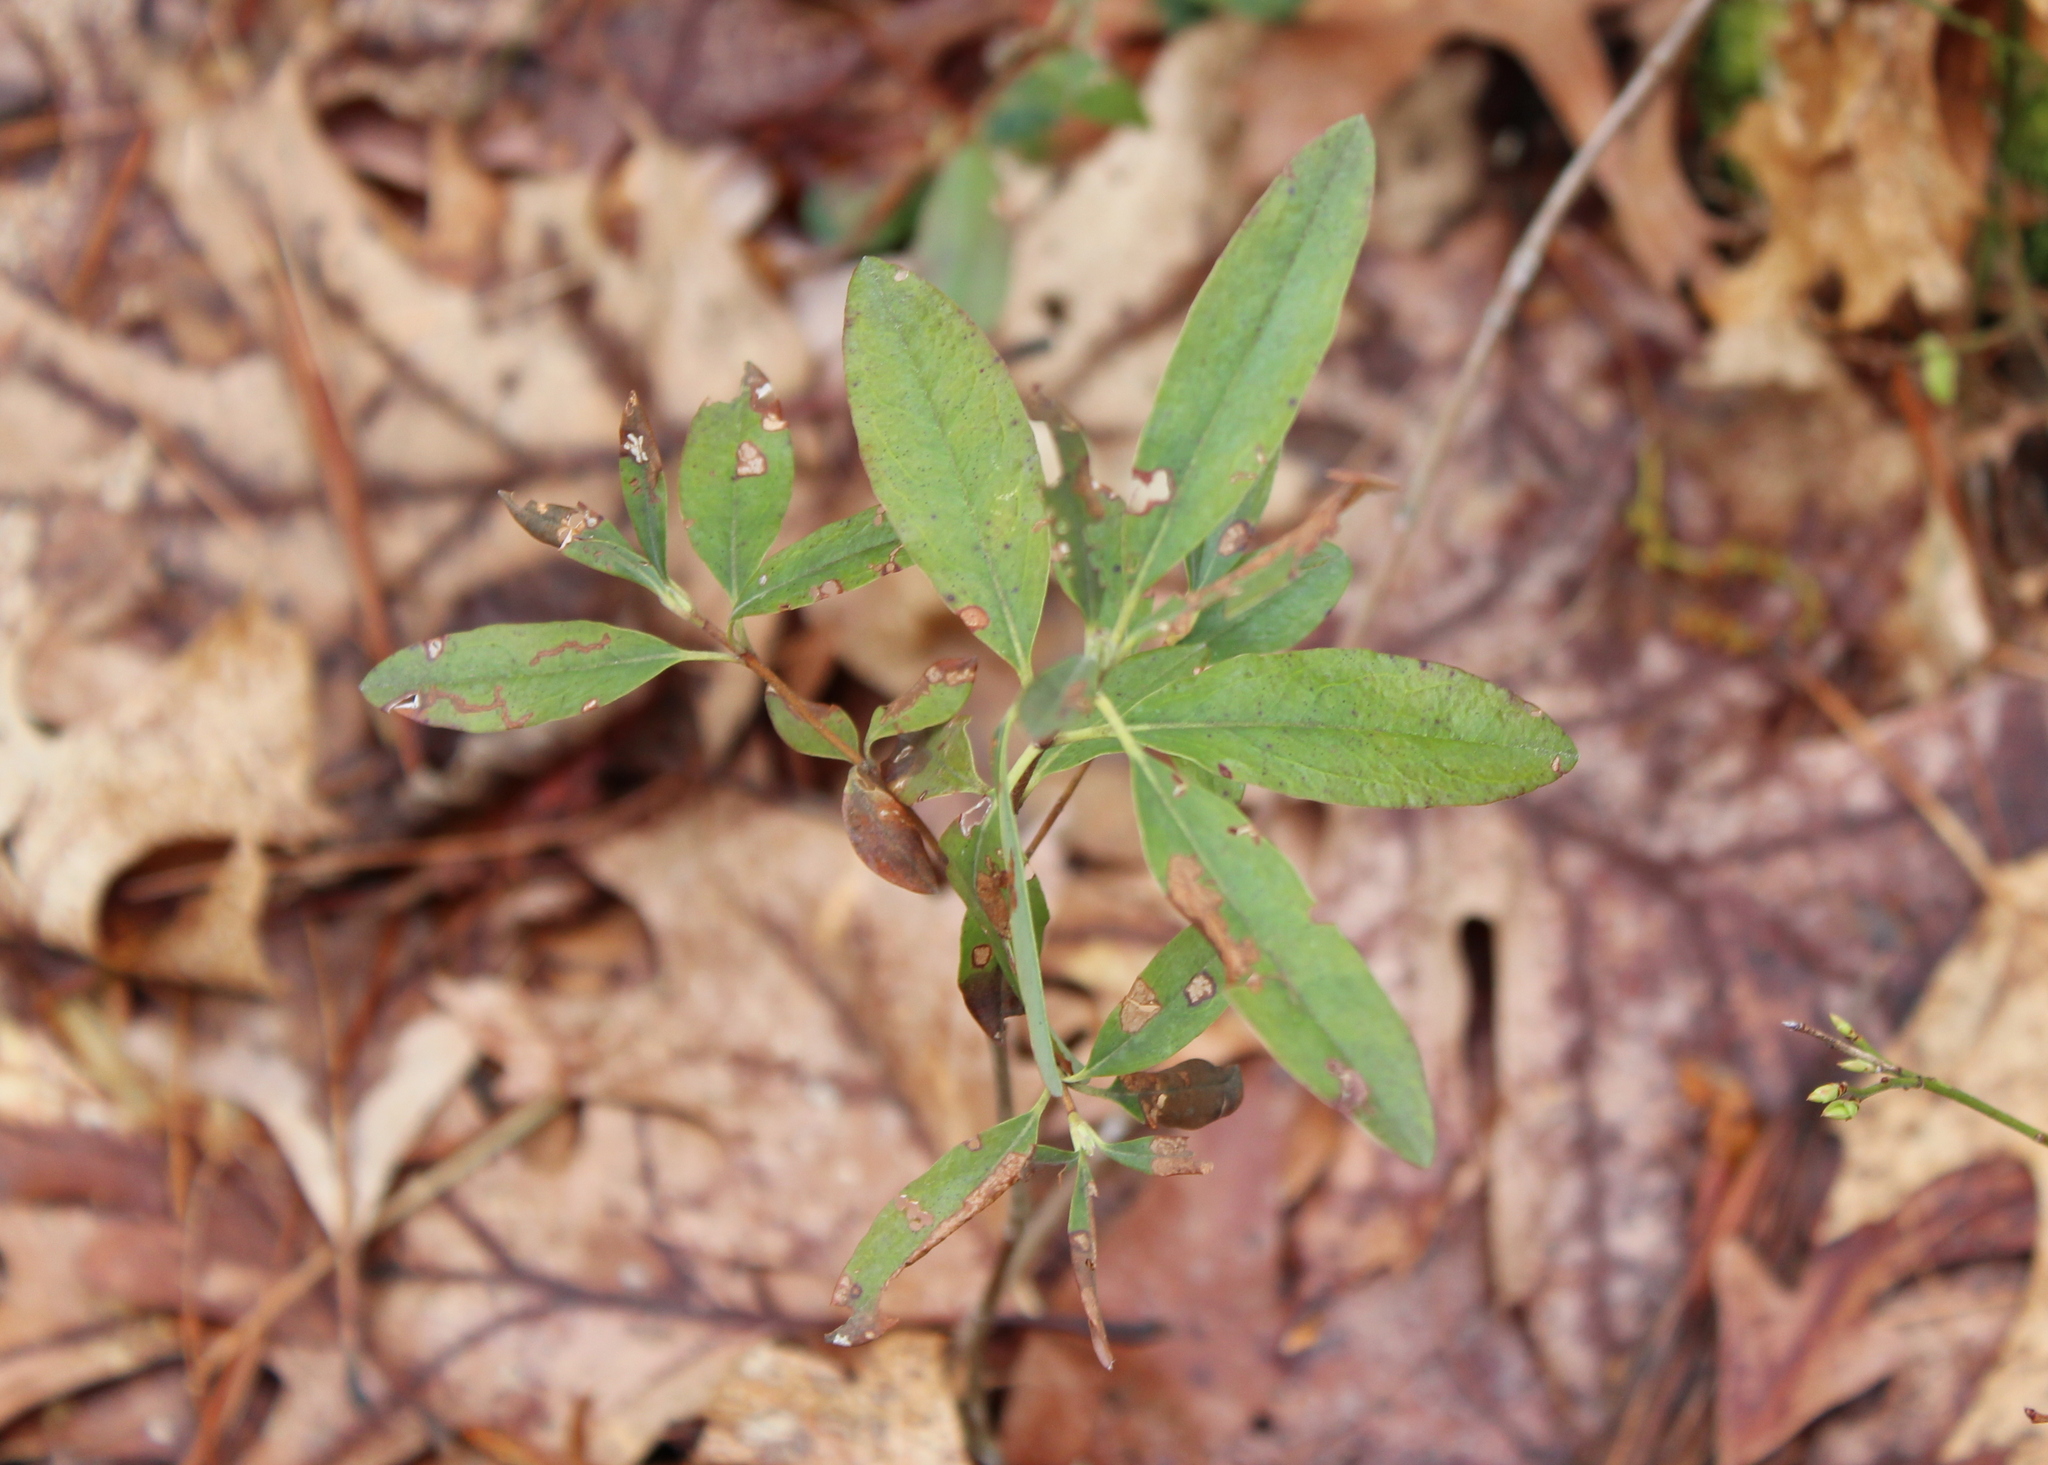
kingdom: Plantae
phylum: Tracheophyta
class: Magnoliopsida
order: Ericales
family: Ericaceae
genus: Kalmia
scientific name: Kalmia angustifolia
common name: Sheep-laurel
